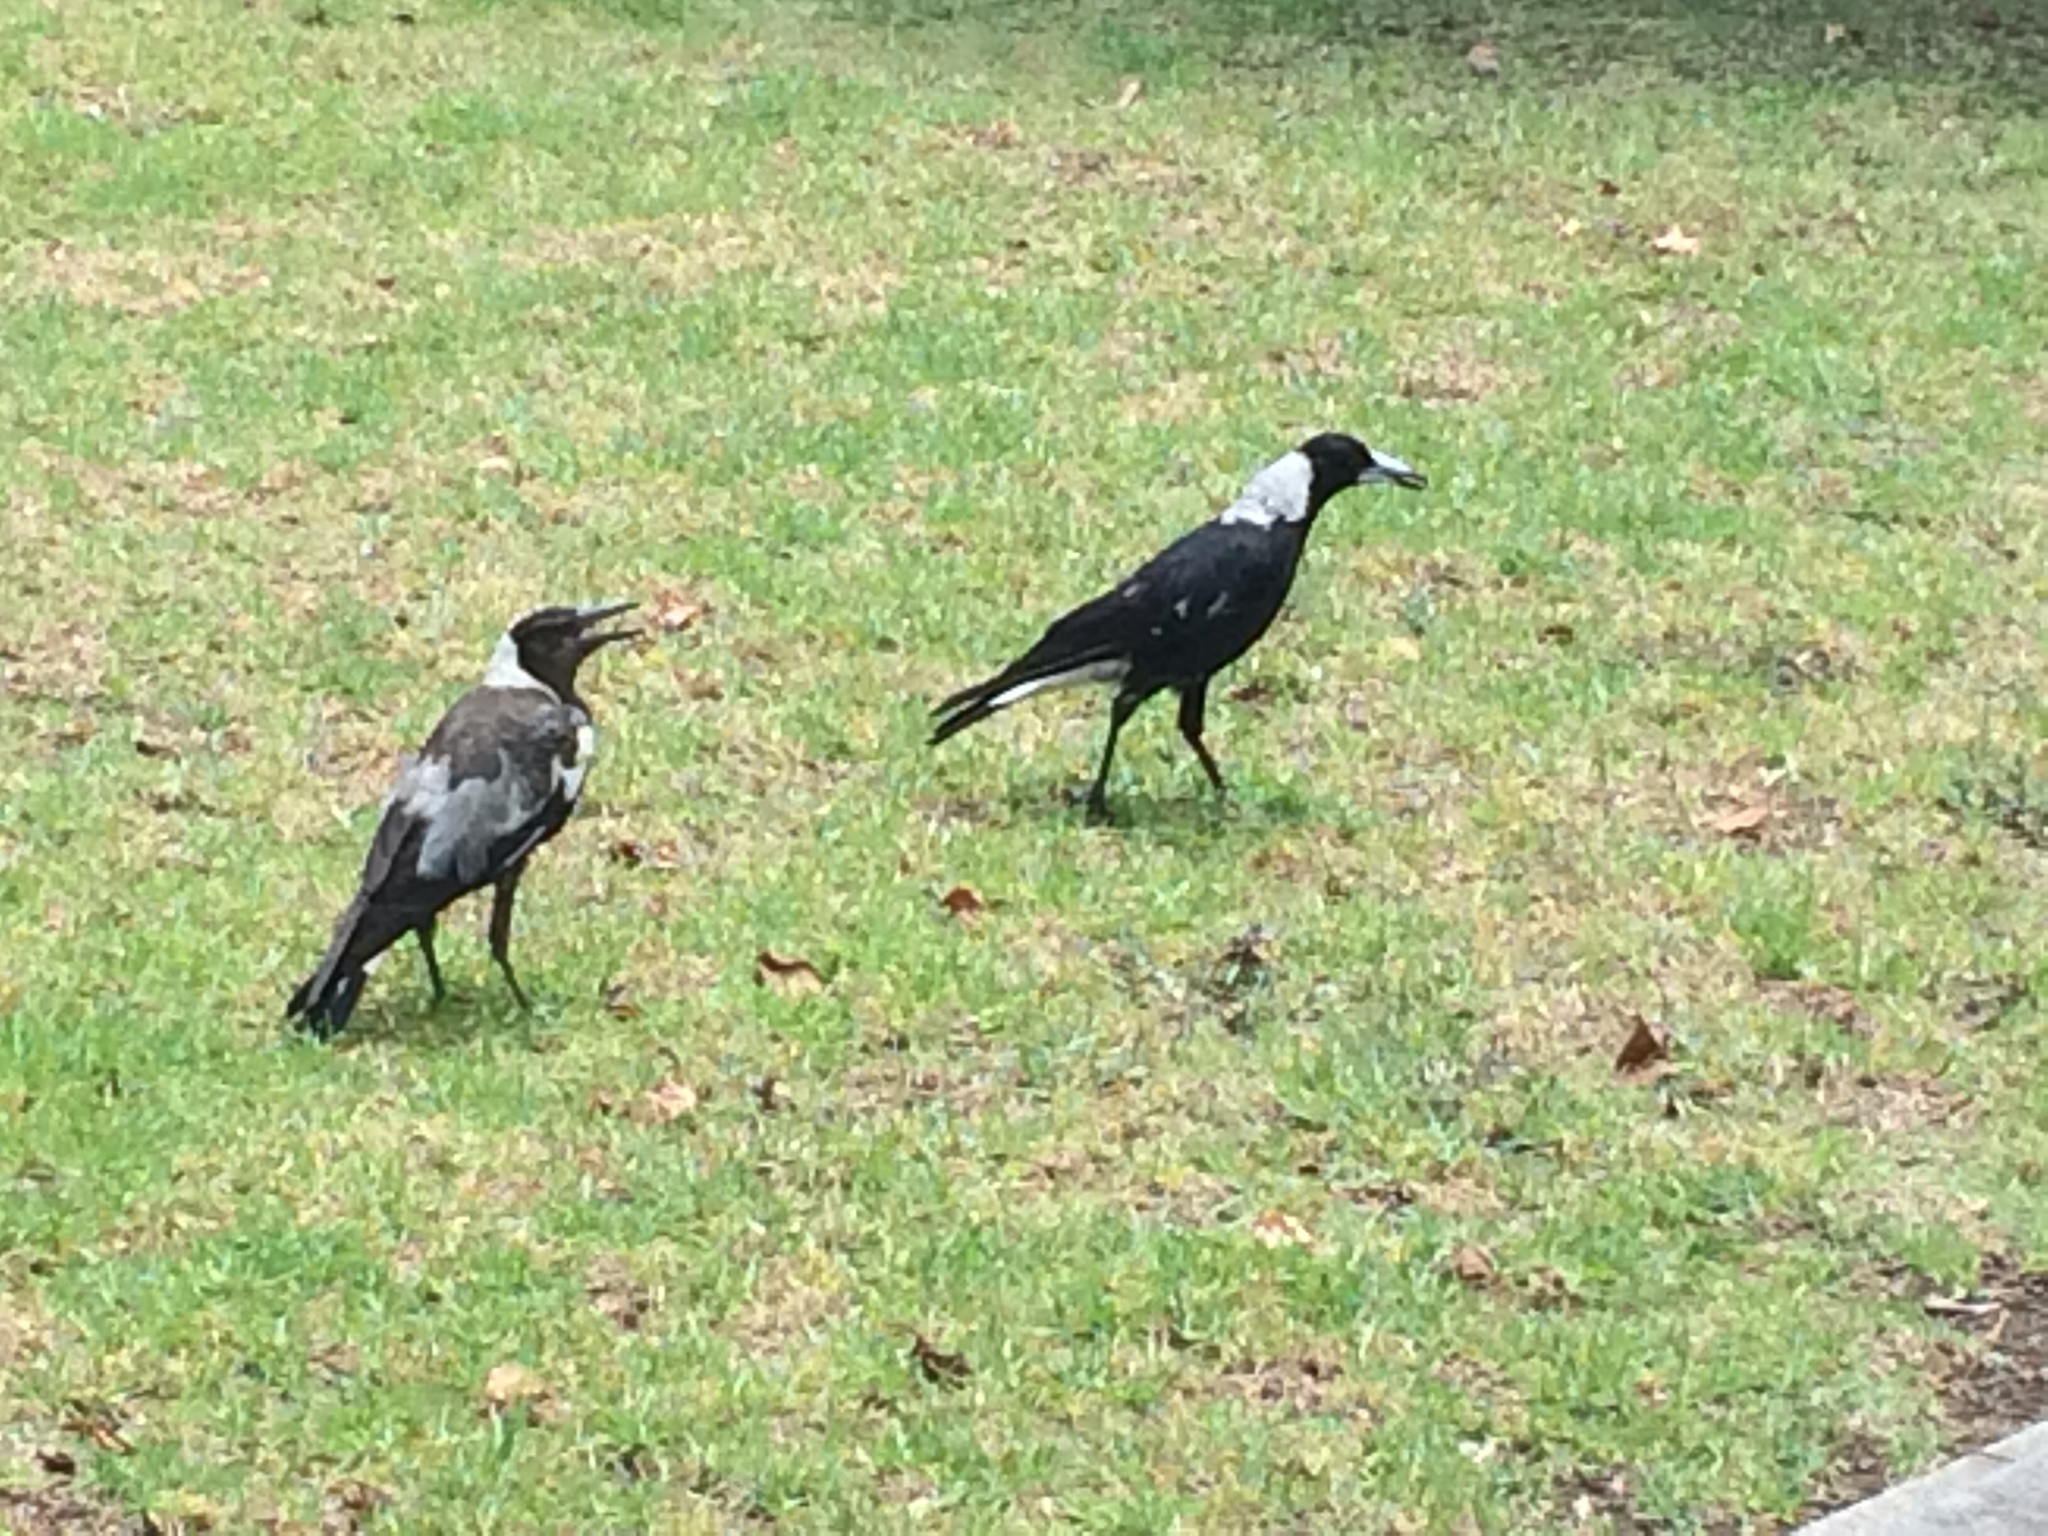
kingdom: Animalia
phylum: Chordata
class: Aves
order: Passeriformes
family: Cracticidae
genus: Gymnorhina
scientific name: Gymnorhina tibicen
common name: Australian magpie
